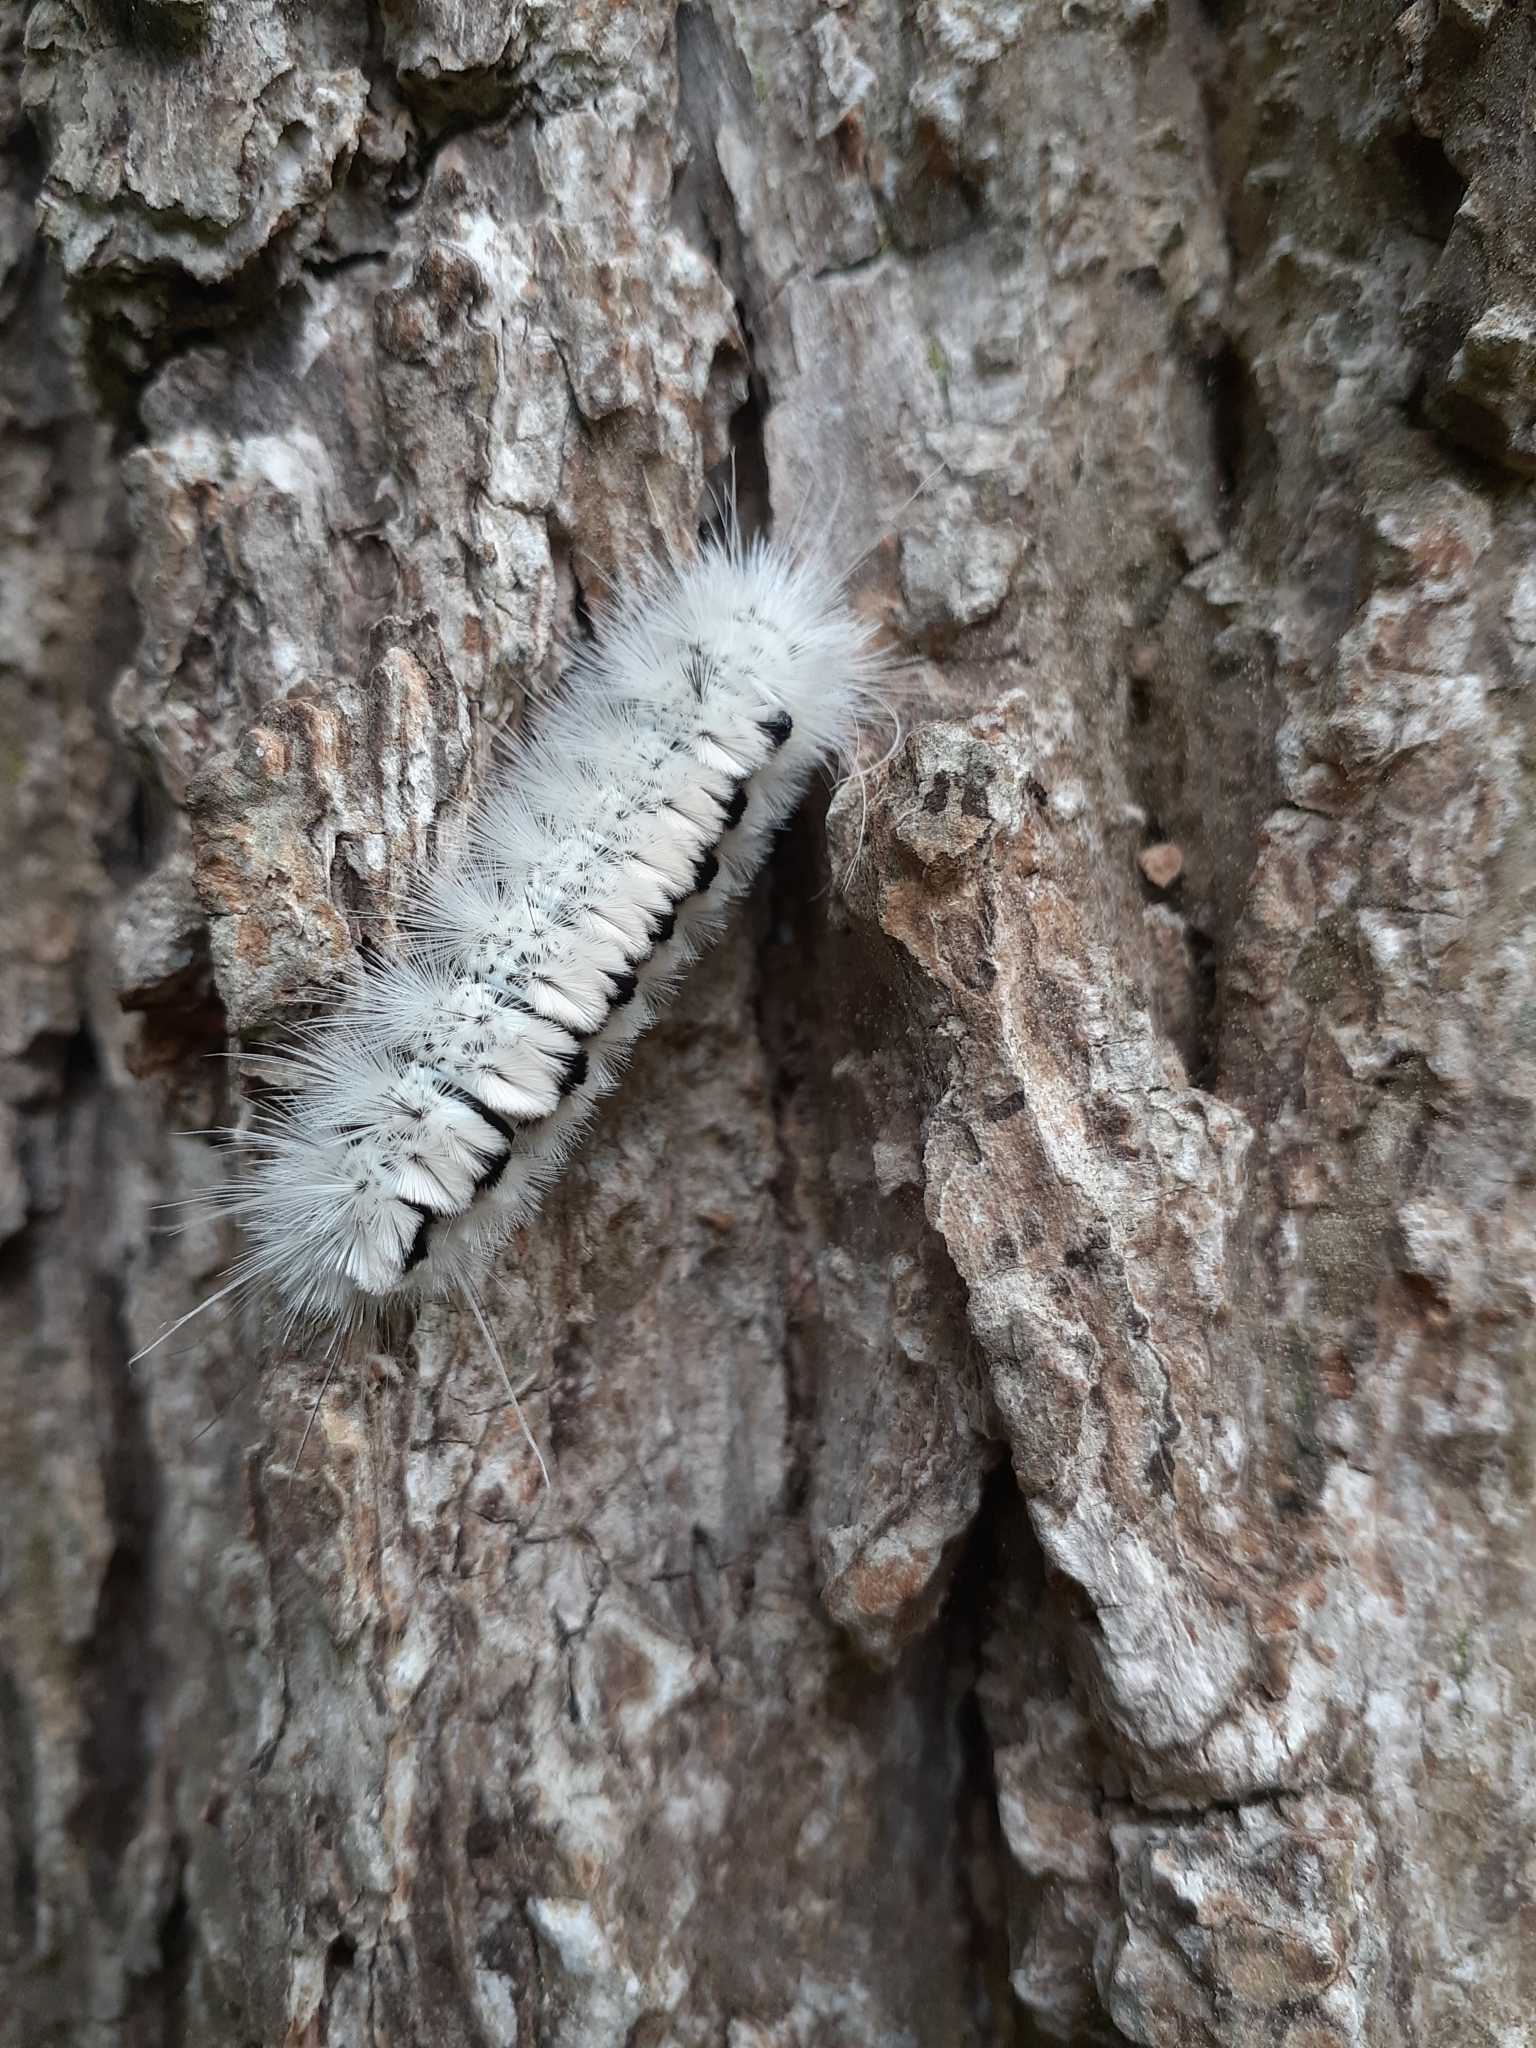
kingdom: Animalia
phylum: Arthropoda
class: Insecta
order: Lepidoptera
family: Erebidae
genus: Lophocampa
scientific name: Lophocampa caryae
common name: Hickory tussock moth
